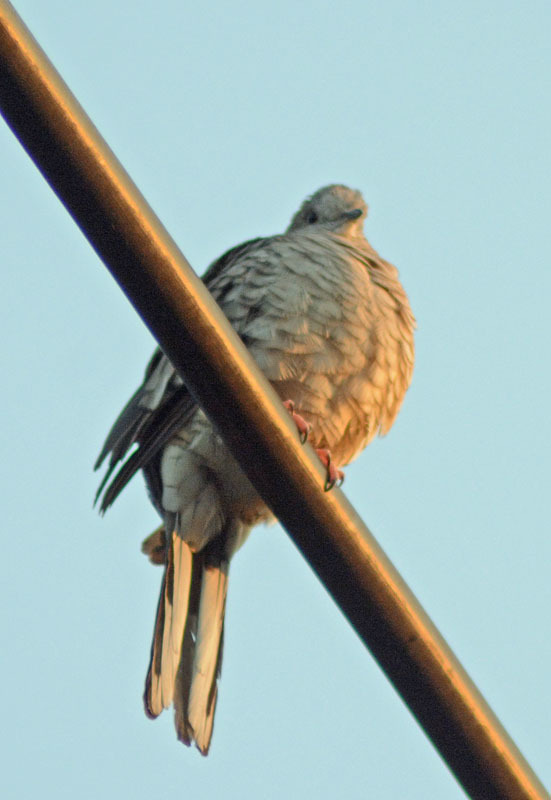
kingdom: Animalia
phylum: Chordata
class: Aves
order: Columbiformes
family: Columbidae
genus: Columbina
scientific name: Columbina inca
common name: Inca dove
